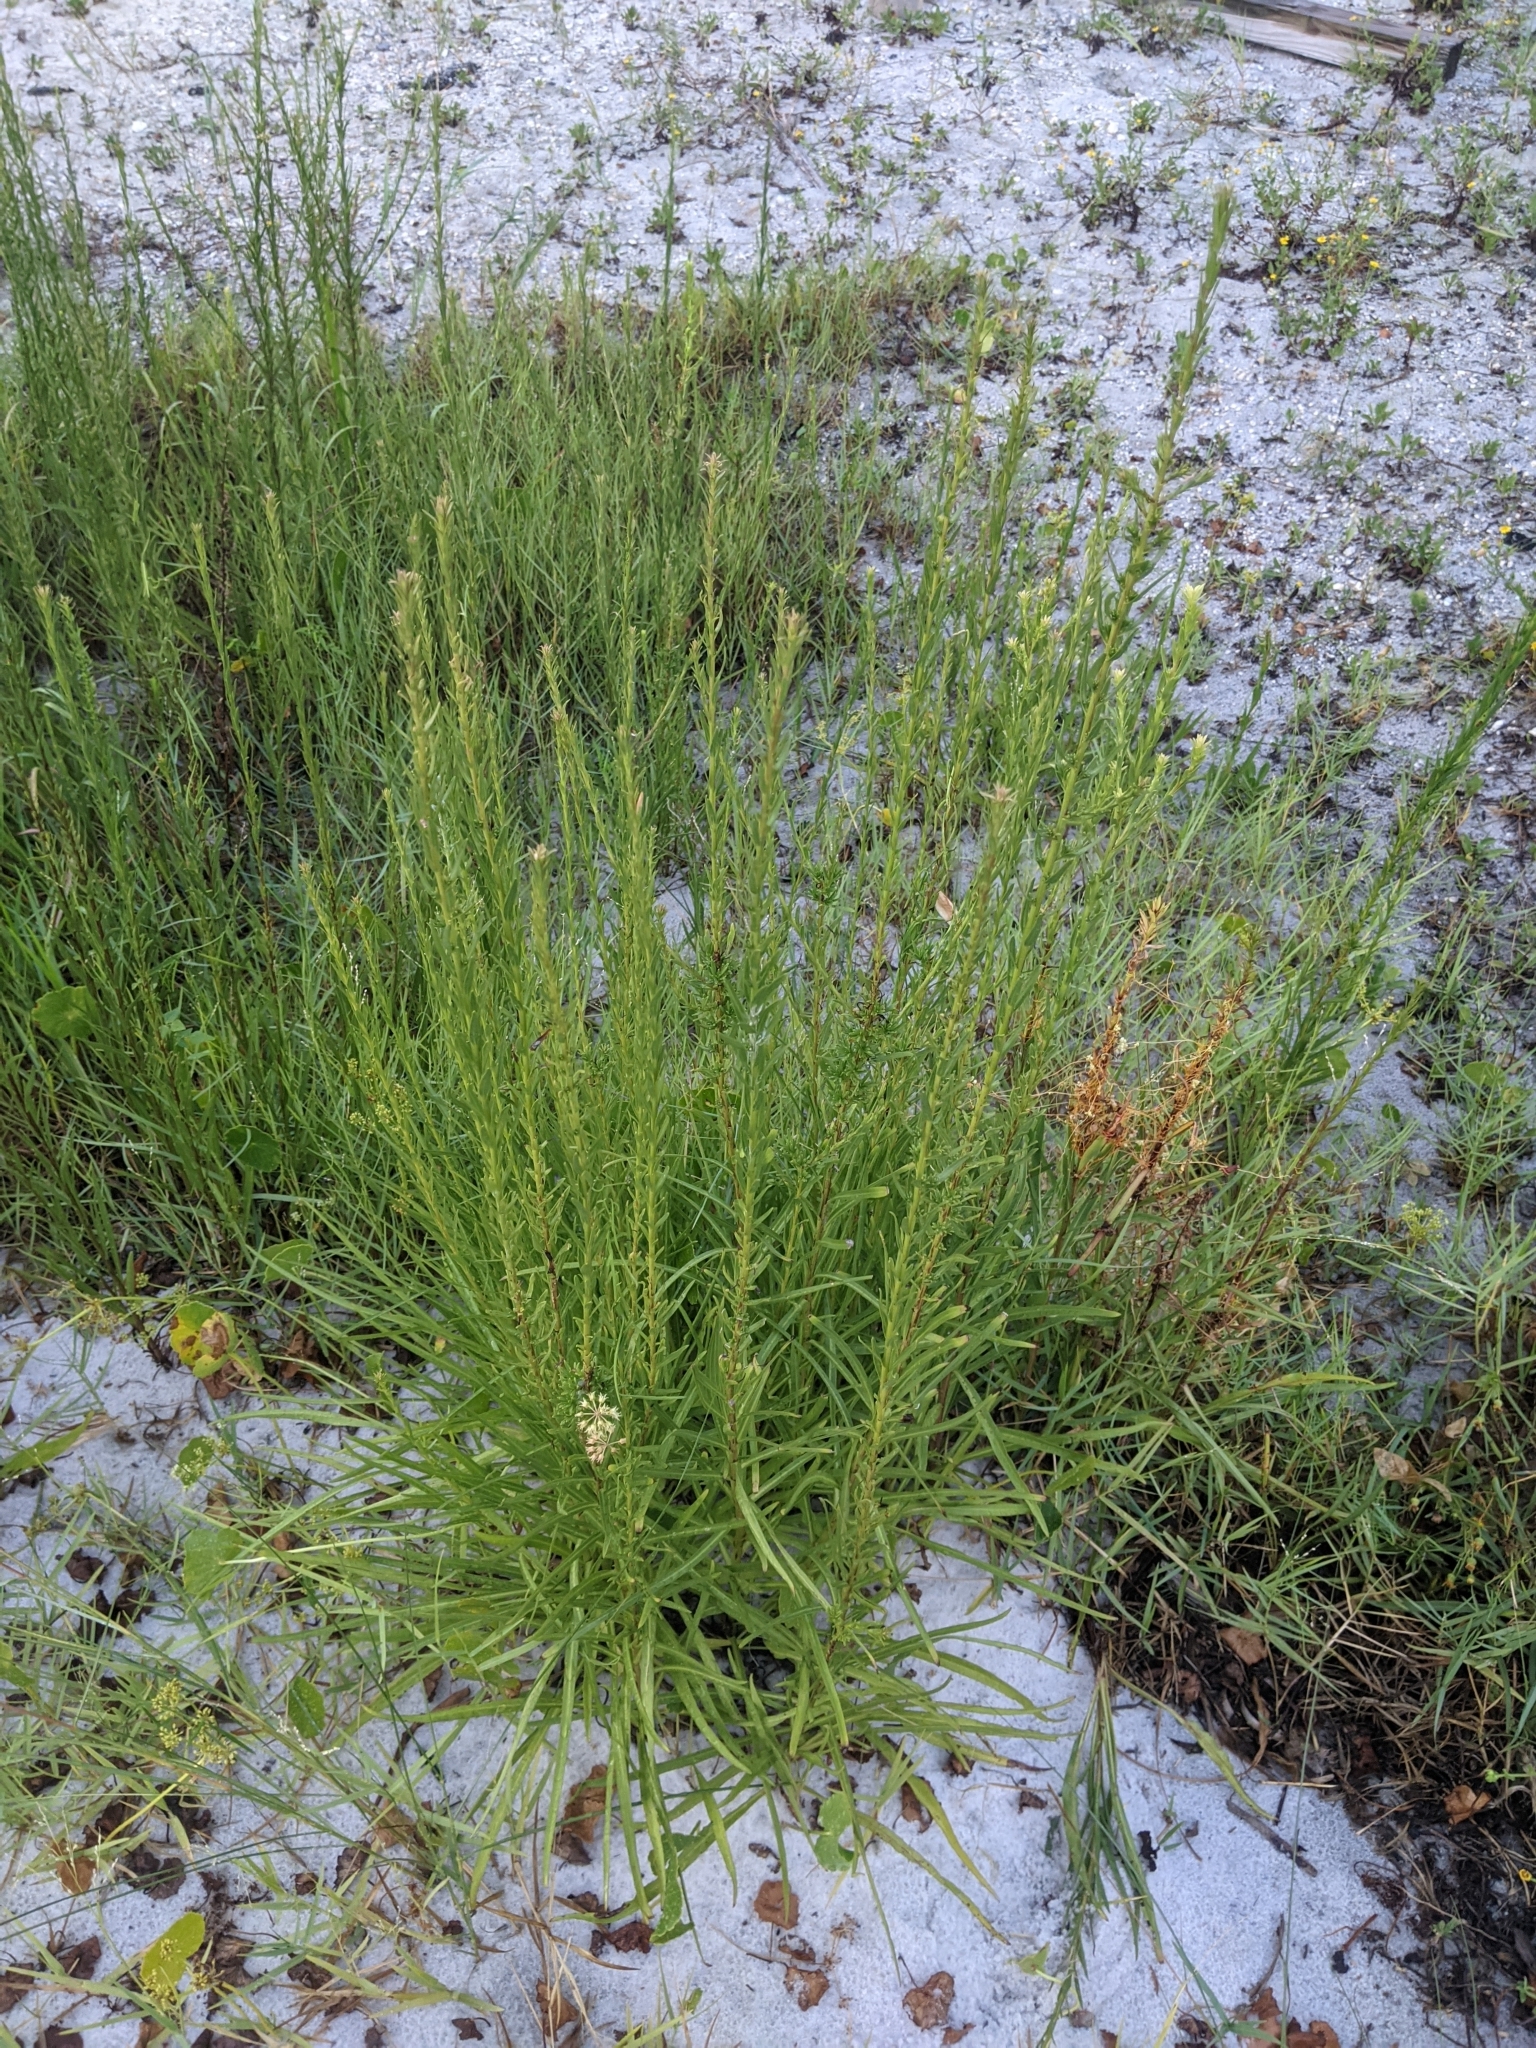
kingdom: Plantae
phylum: Tracheophyta
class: Magnoliopsida
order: Gentianales
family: Apocynaceae
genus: Pattalias
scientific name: Pattalias
